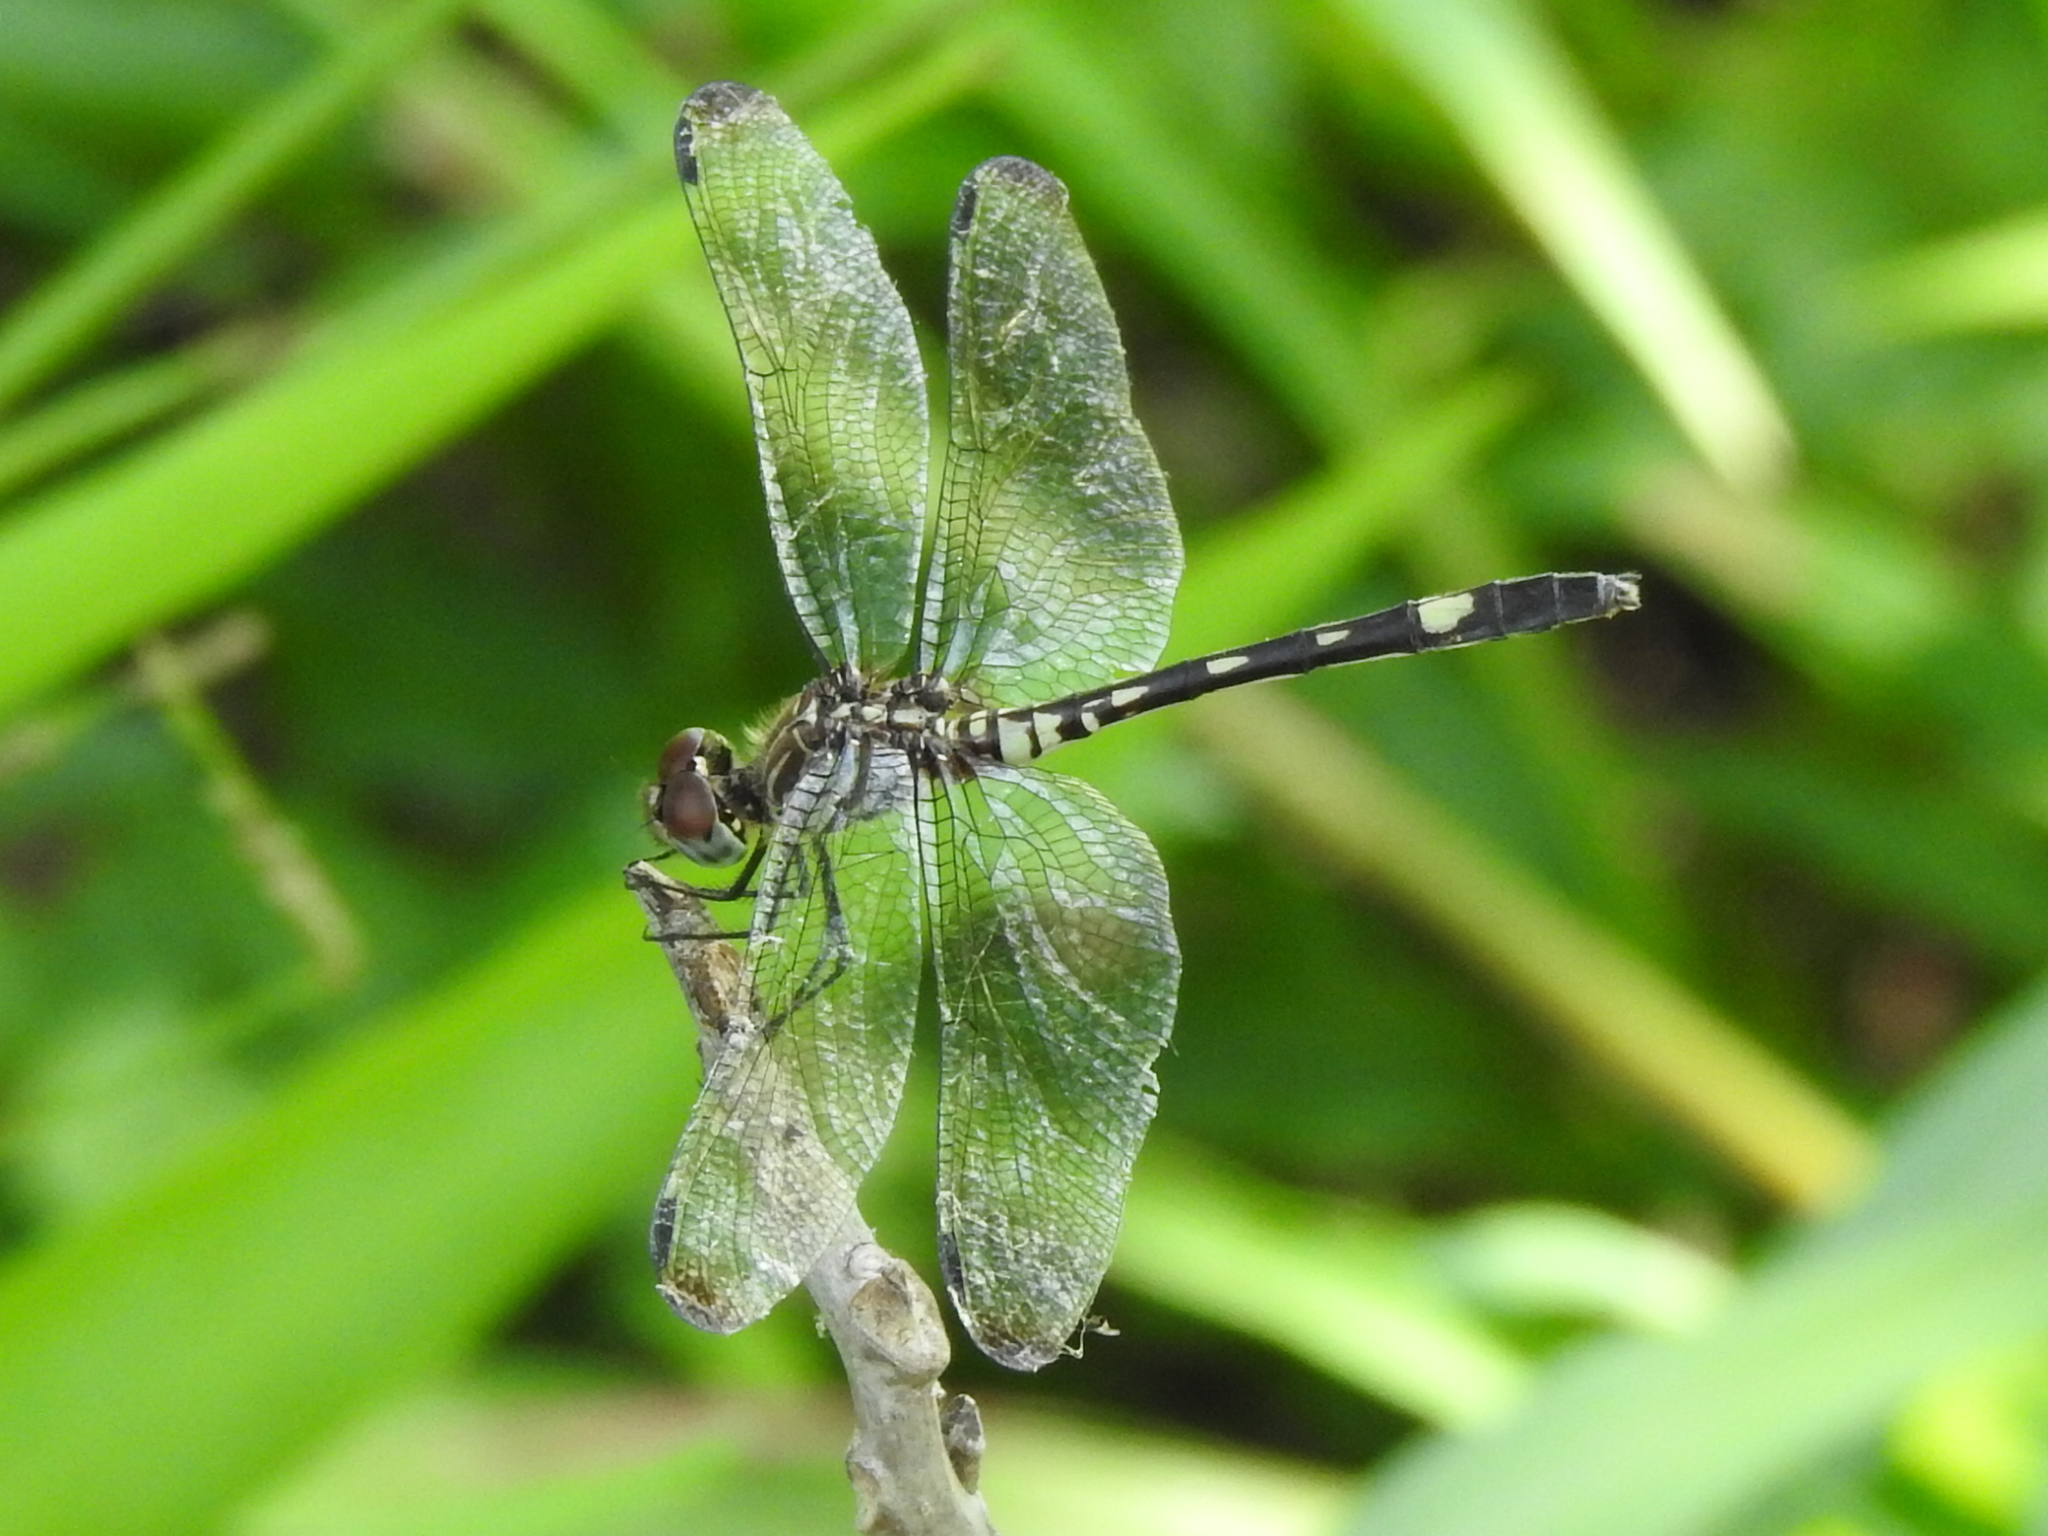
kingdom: Animalia
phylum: Arthropoda
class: Insecta
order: Odonata
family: Libellulidae
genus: Dythemis
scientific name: Dythemis velox
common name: Swift setwing
